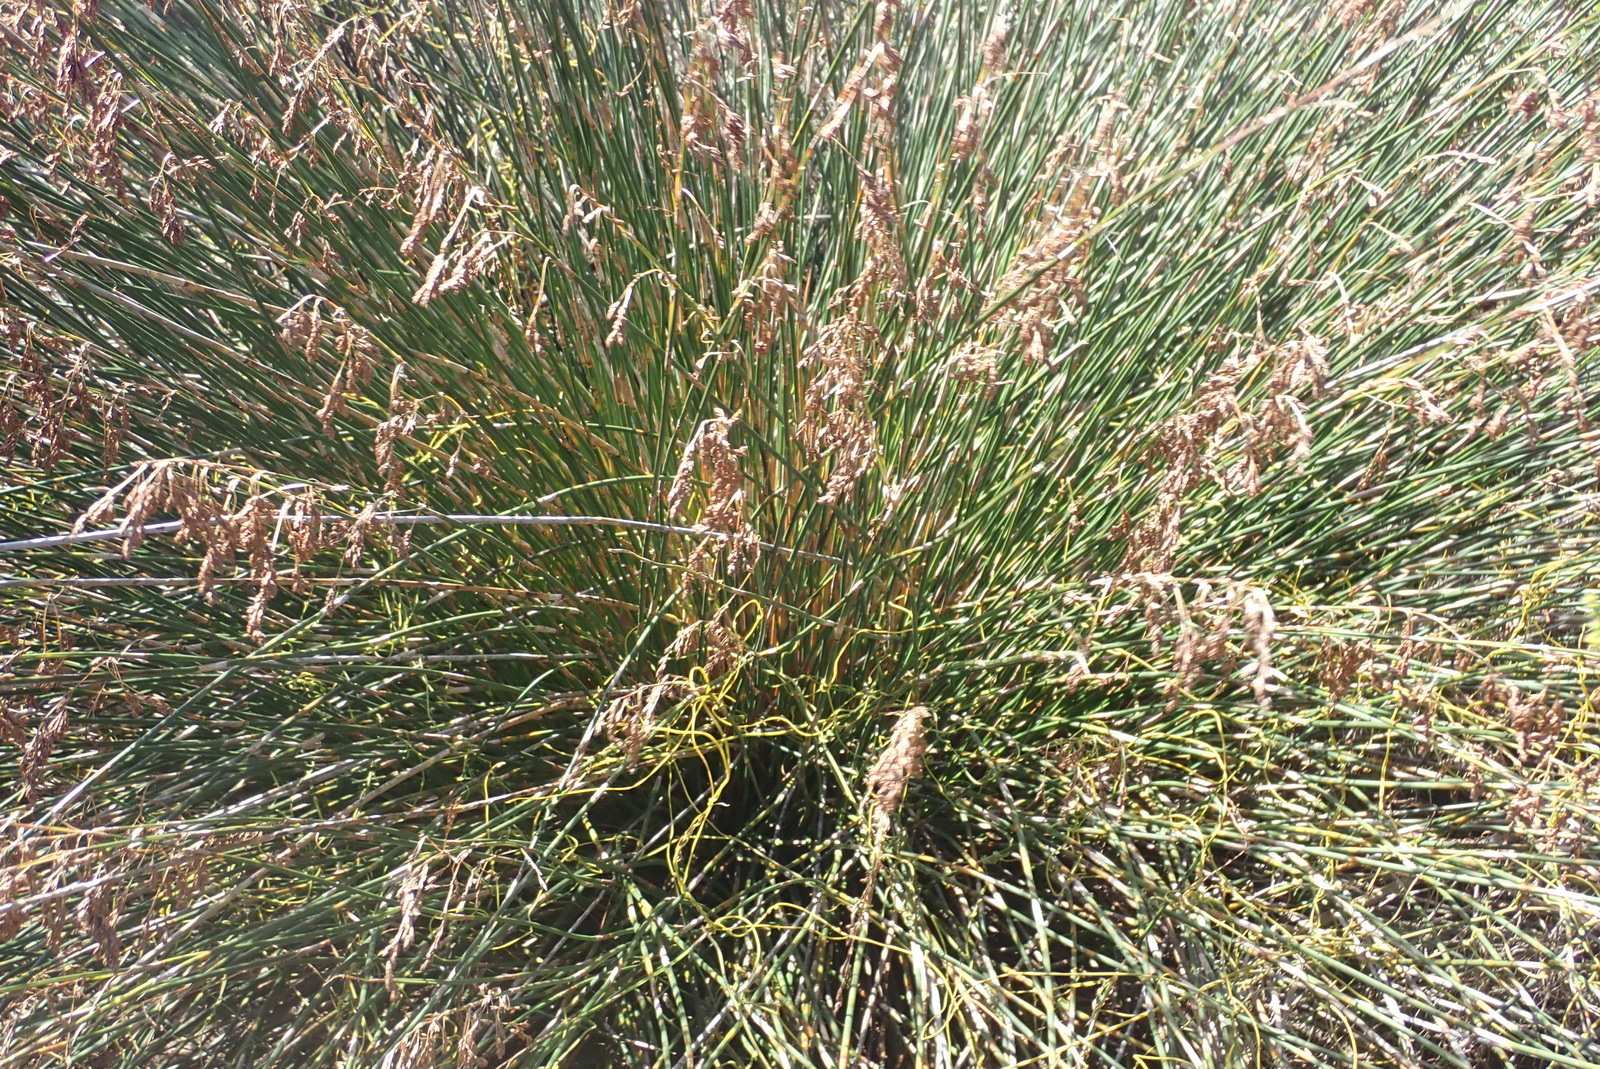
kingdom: Plantae
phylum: Tracheophyta
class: Liliopsida
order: Poales
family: Restionaceae
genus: Thamnochortus
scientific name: Thamnochortus insignis
